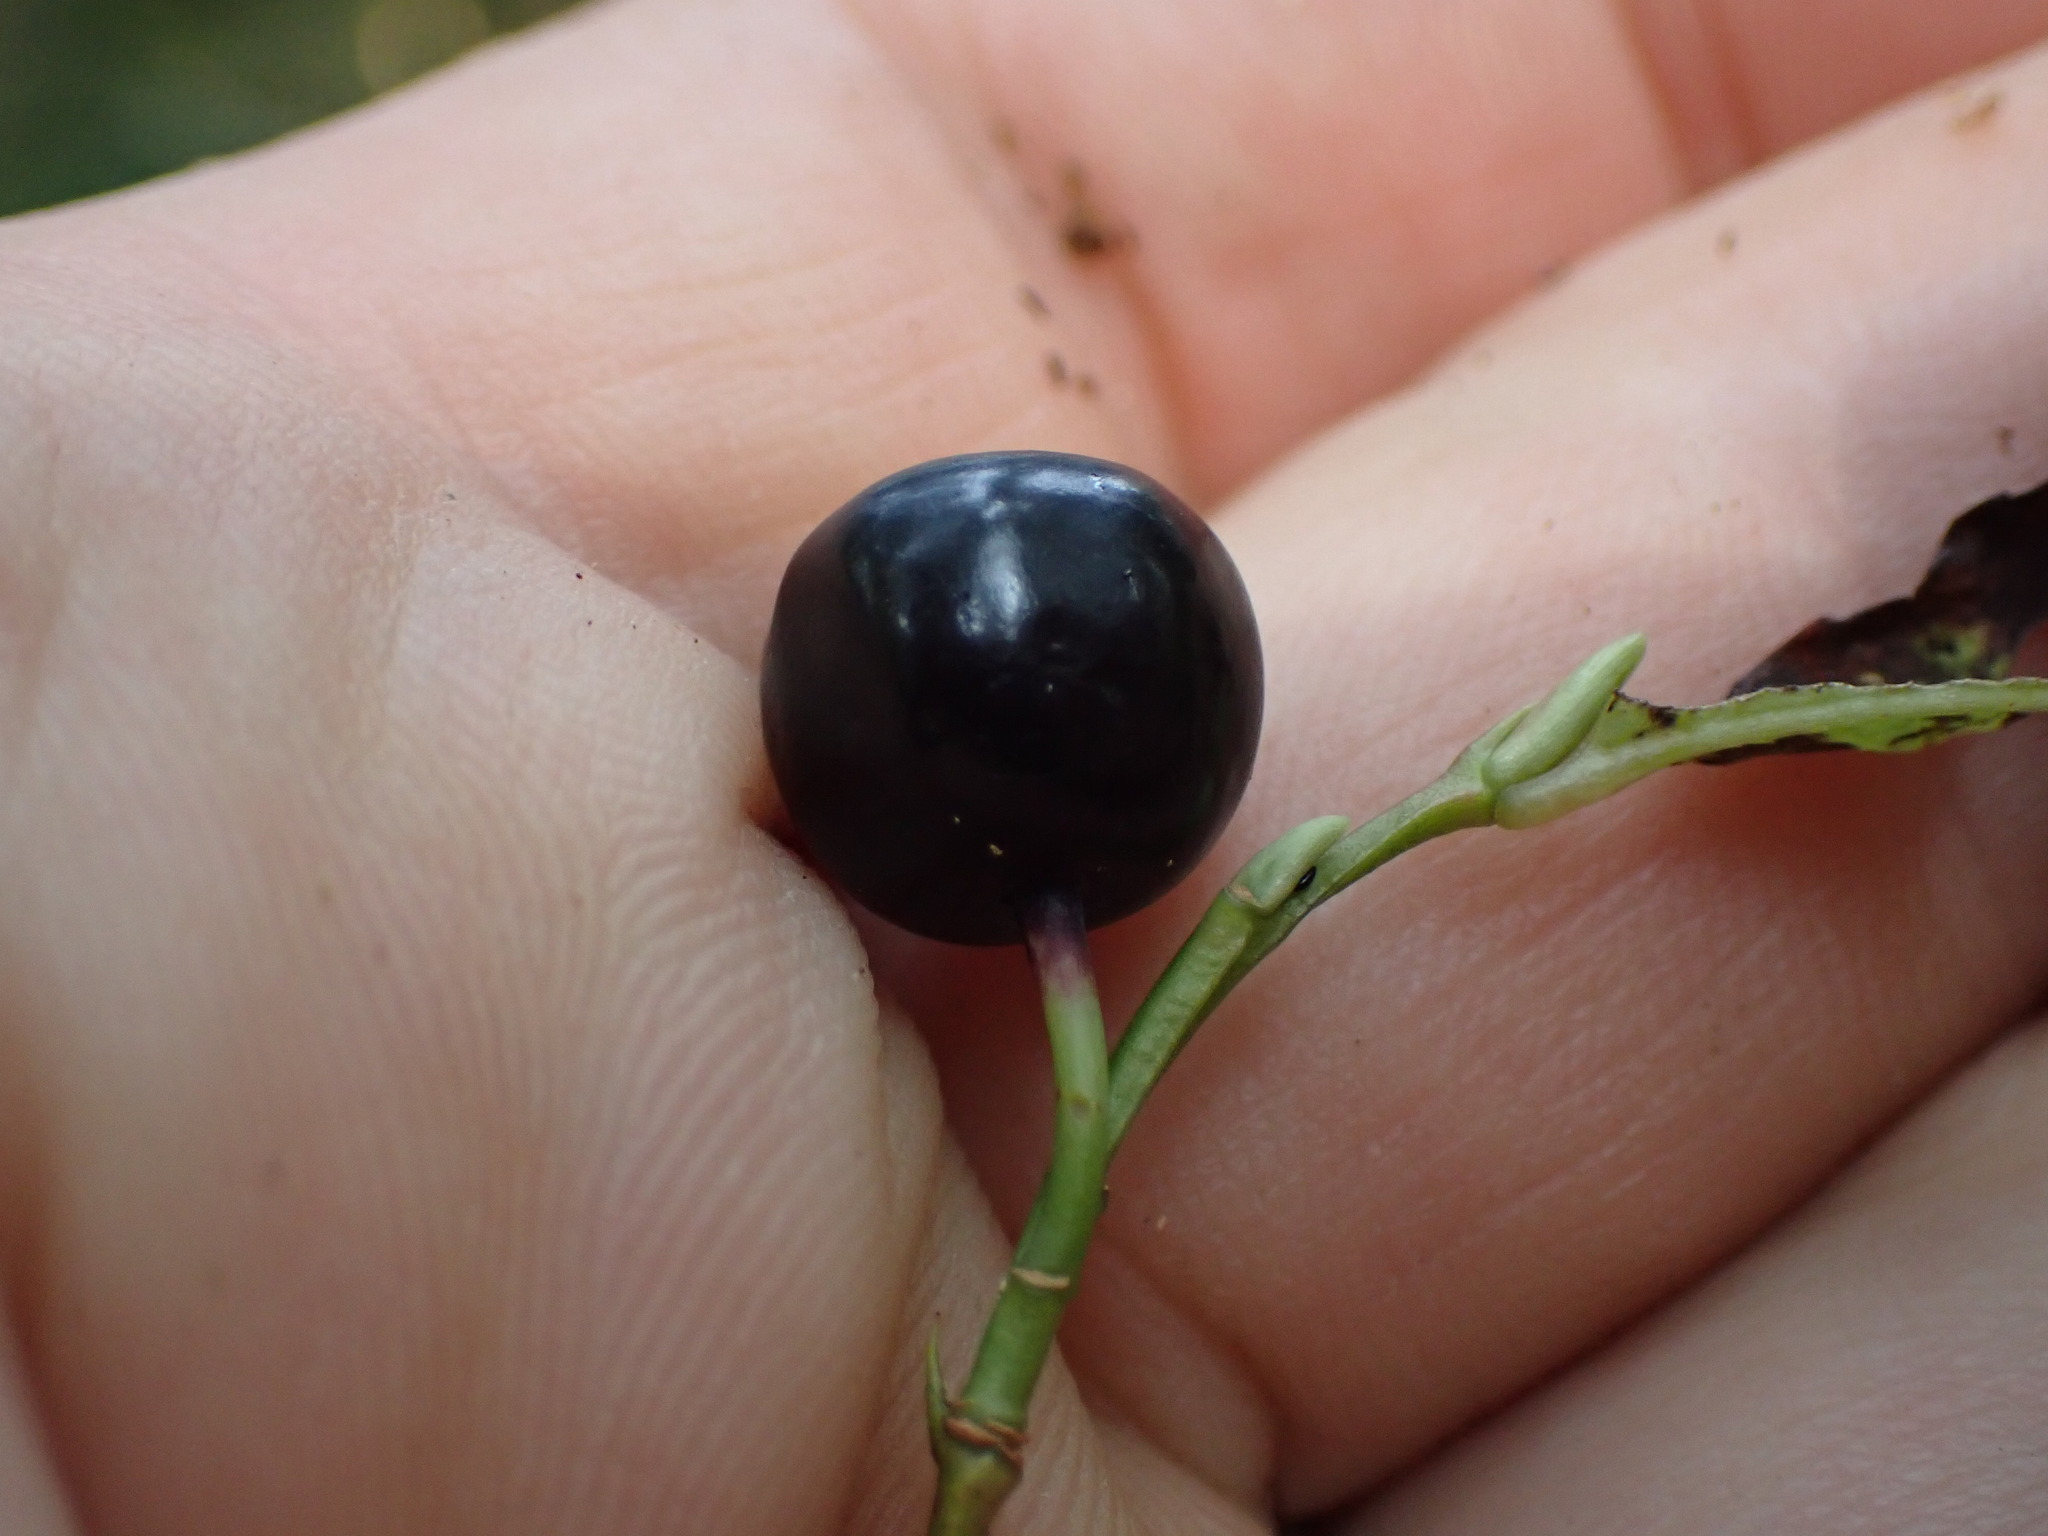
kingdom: Plantae
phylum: Tracheophyta
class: Liliopsida
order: Liliales
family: Liliaceae
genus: Clintonia
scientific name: Clintonia uniflora
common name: Queen's cup
